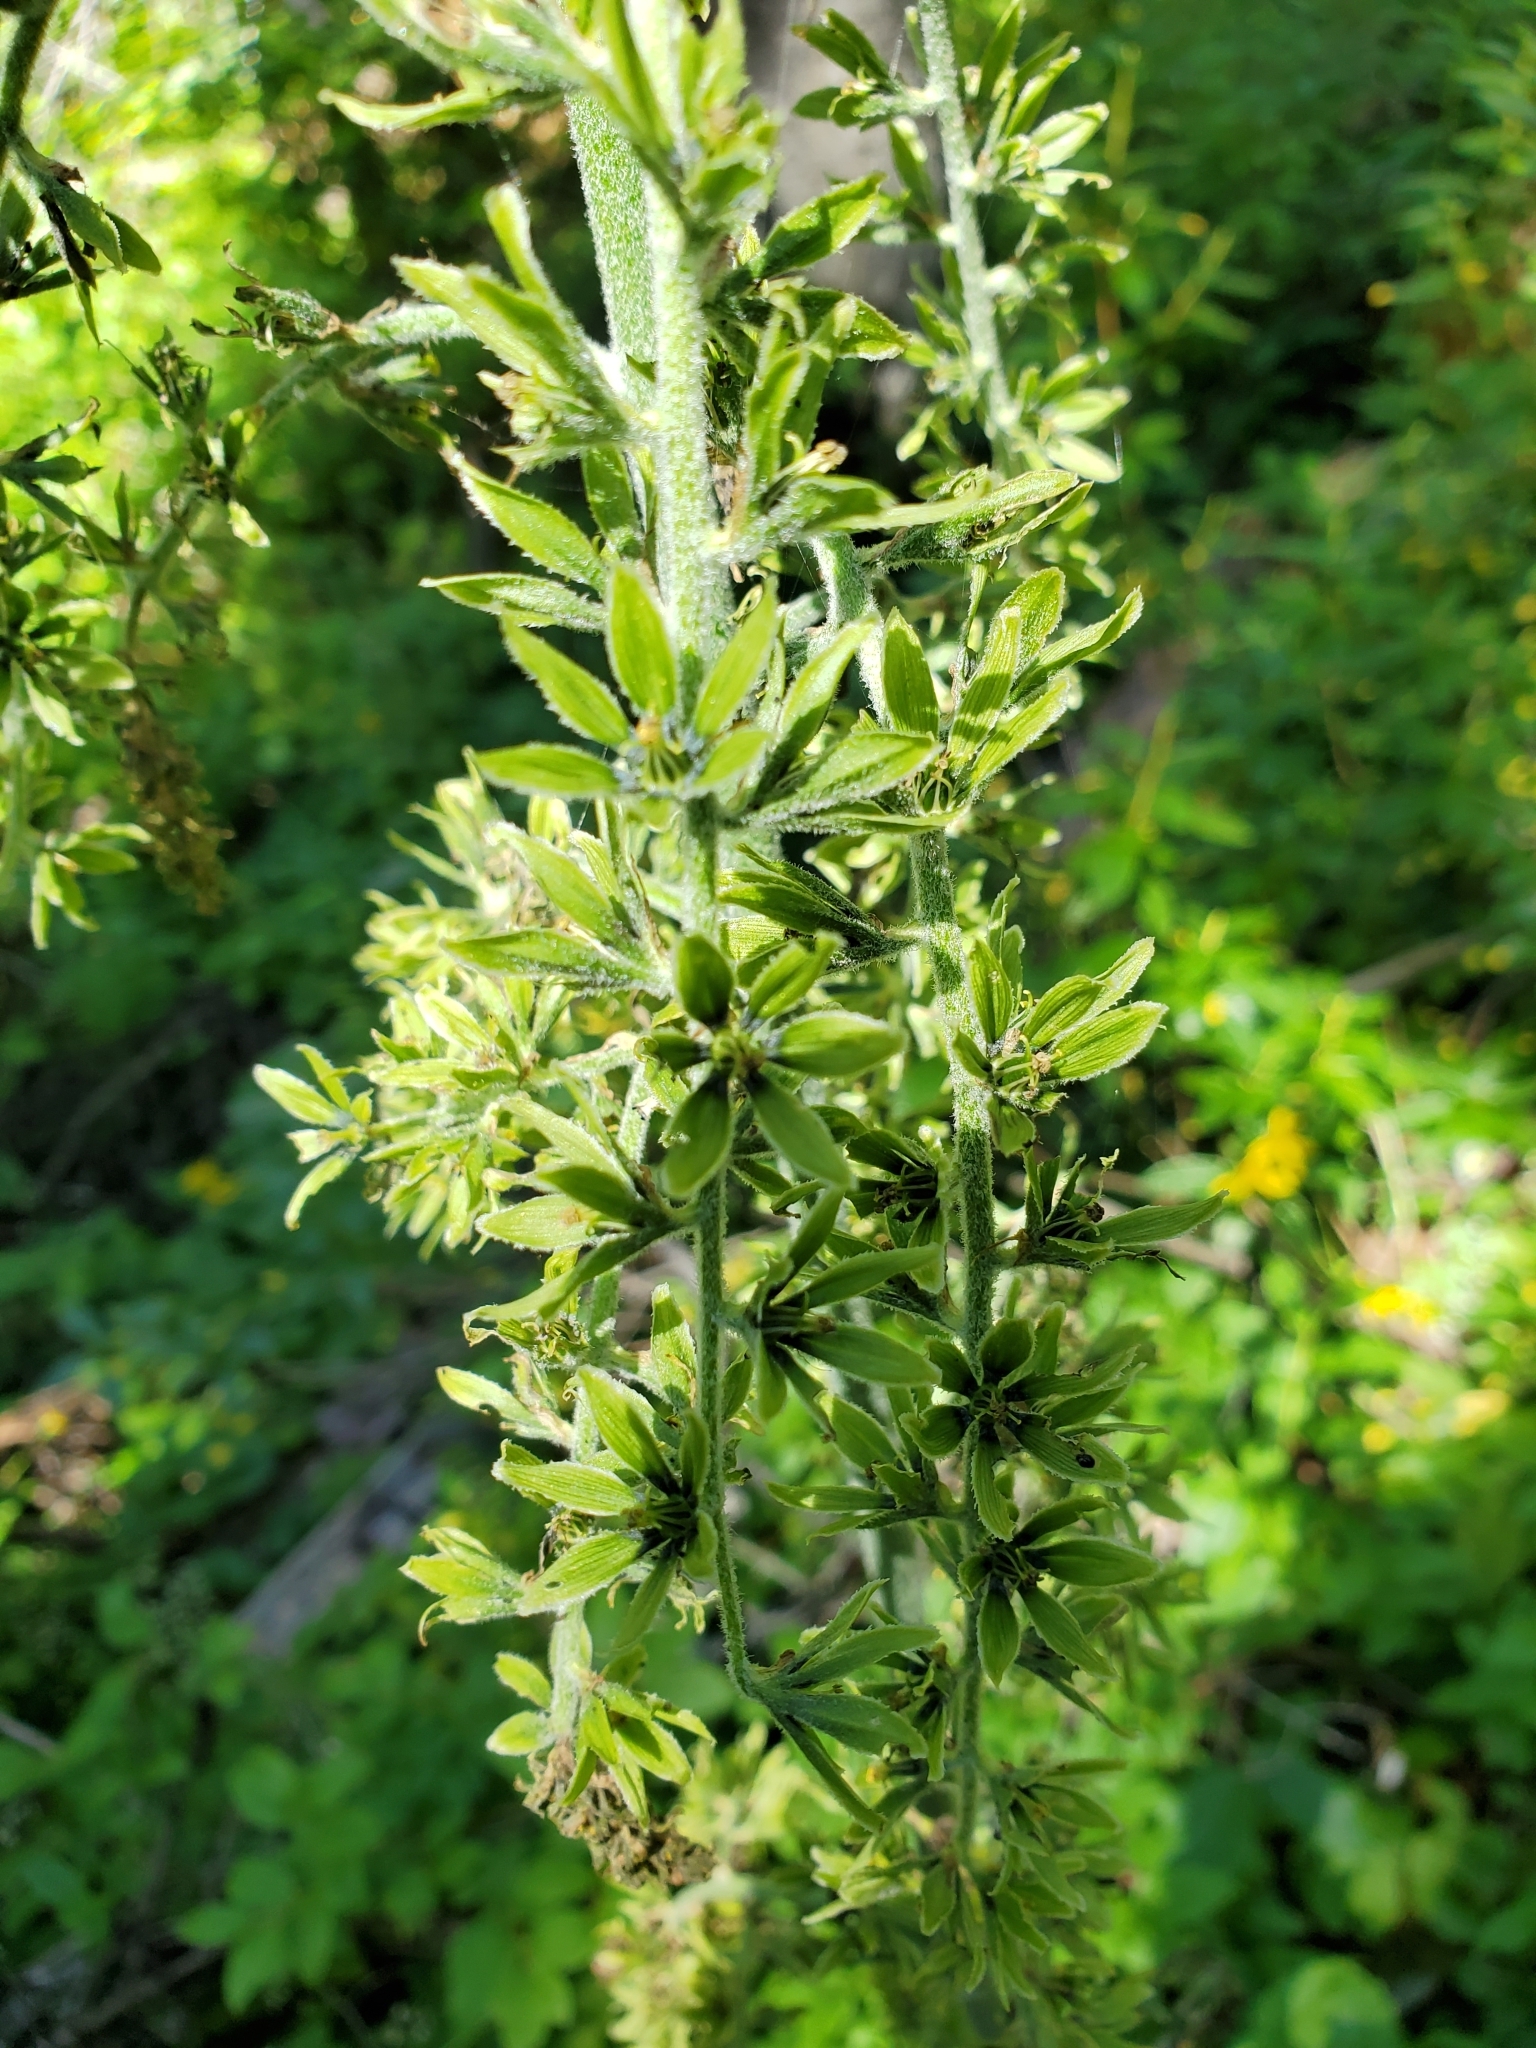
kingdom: Plantae
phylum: Tracheophyta
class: Liliopsida
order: Liliales
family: Melanthiaceae
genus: Veratrum
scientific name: Veratrum viride
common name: American false hellebore
